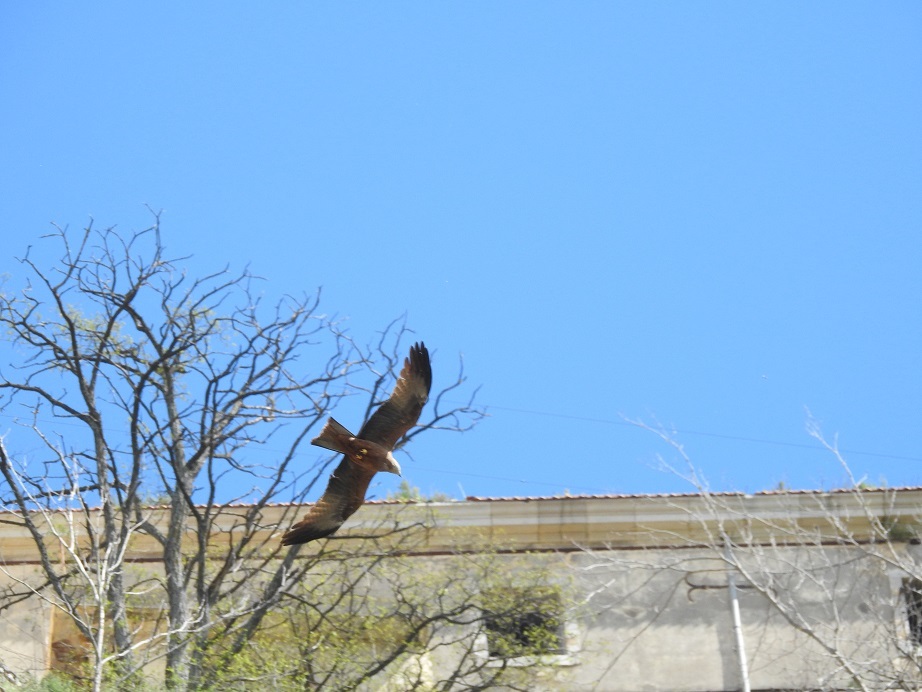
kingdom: Animalia
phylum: Chordata
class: Aves
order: Accipitriformes
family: Accipitridae
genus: Milvus
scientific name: Milvus migrans
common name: Black kite
